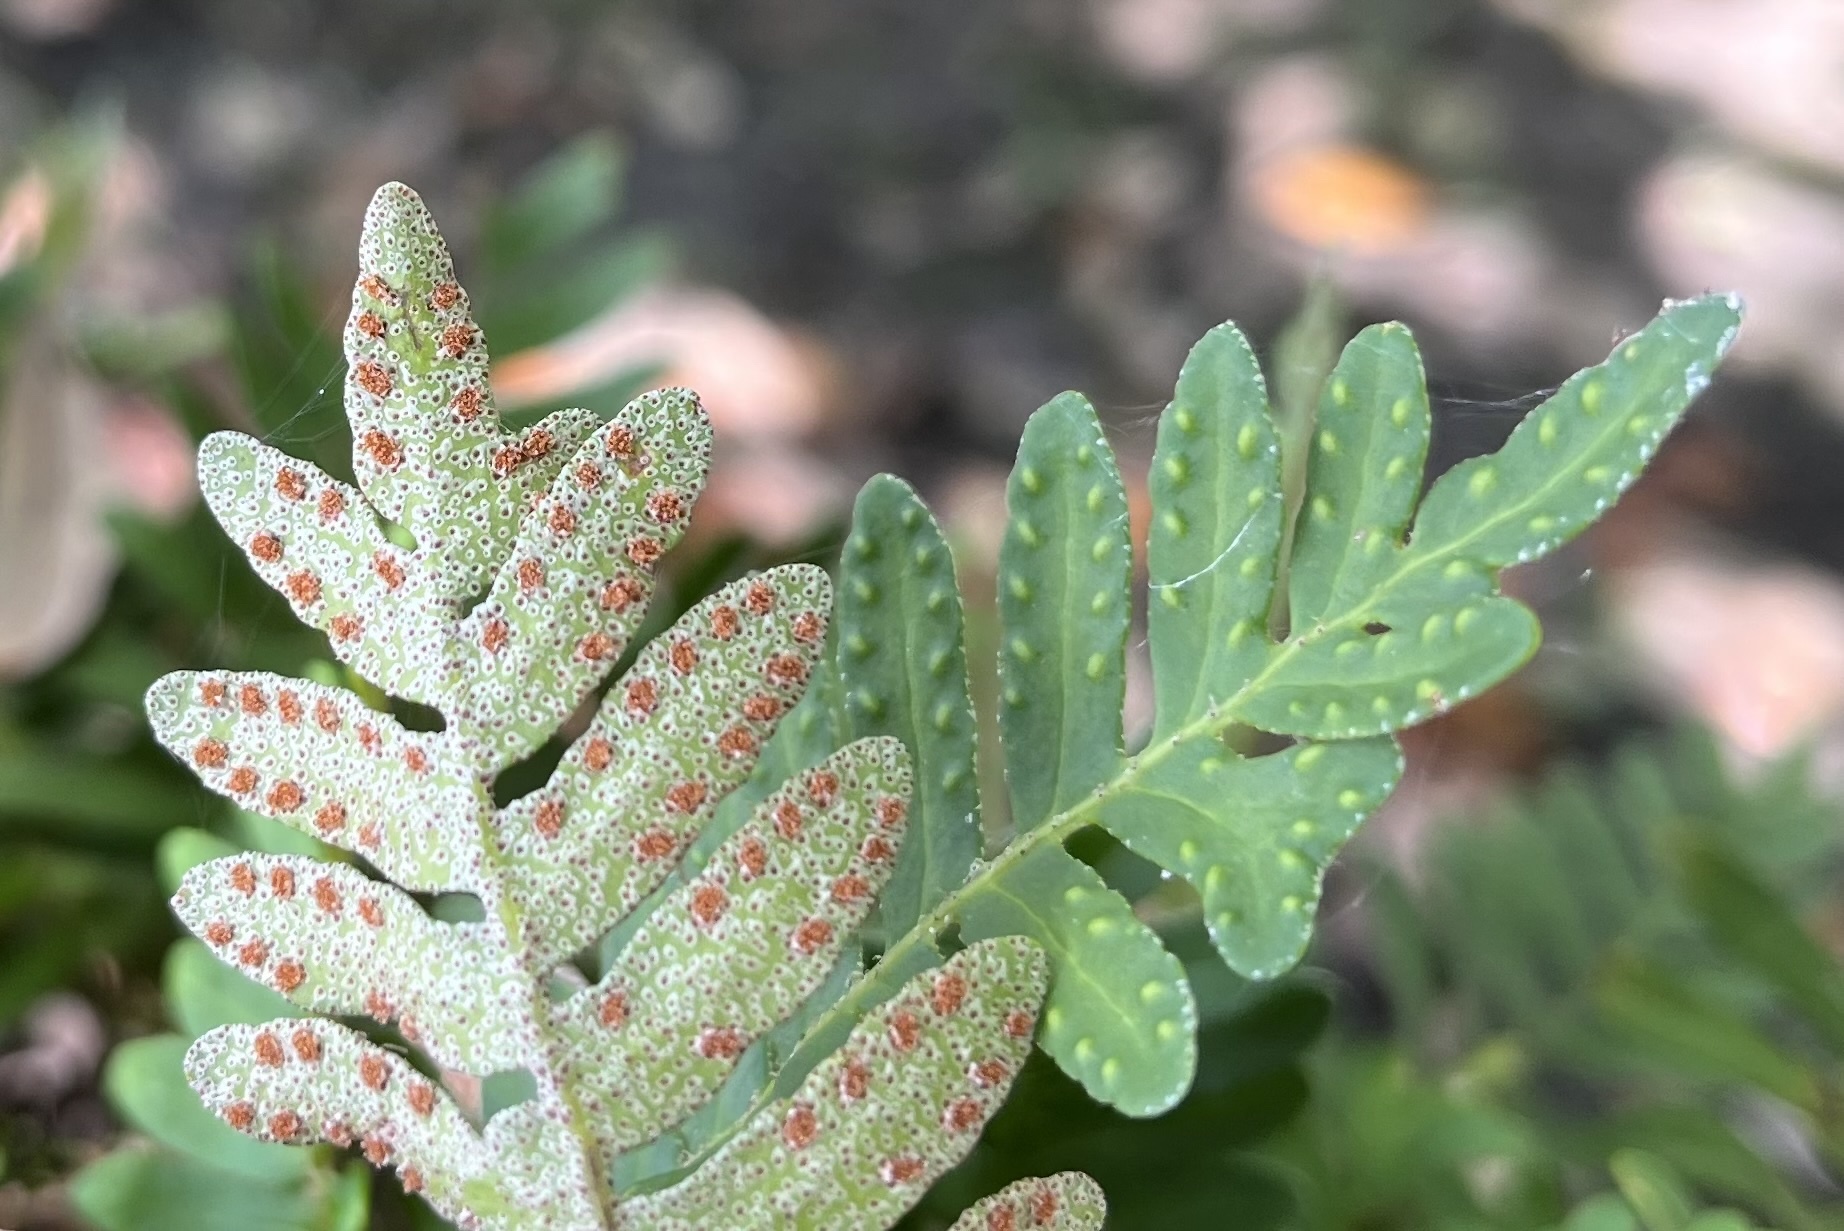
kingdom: Plantae
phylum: Tracheophyta
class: Polypodiopsida
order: Polypodiales
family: Polypodiaceae
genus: Pleopeltis
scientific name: Pleopeltis michauxiana
